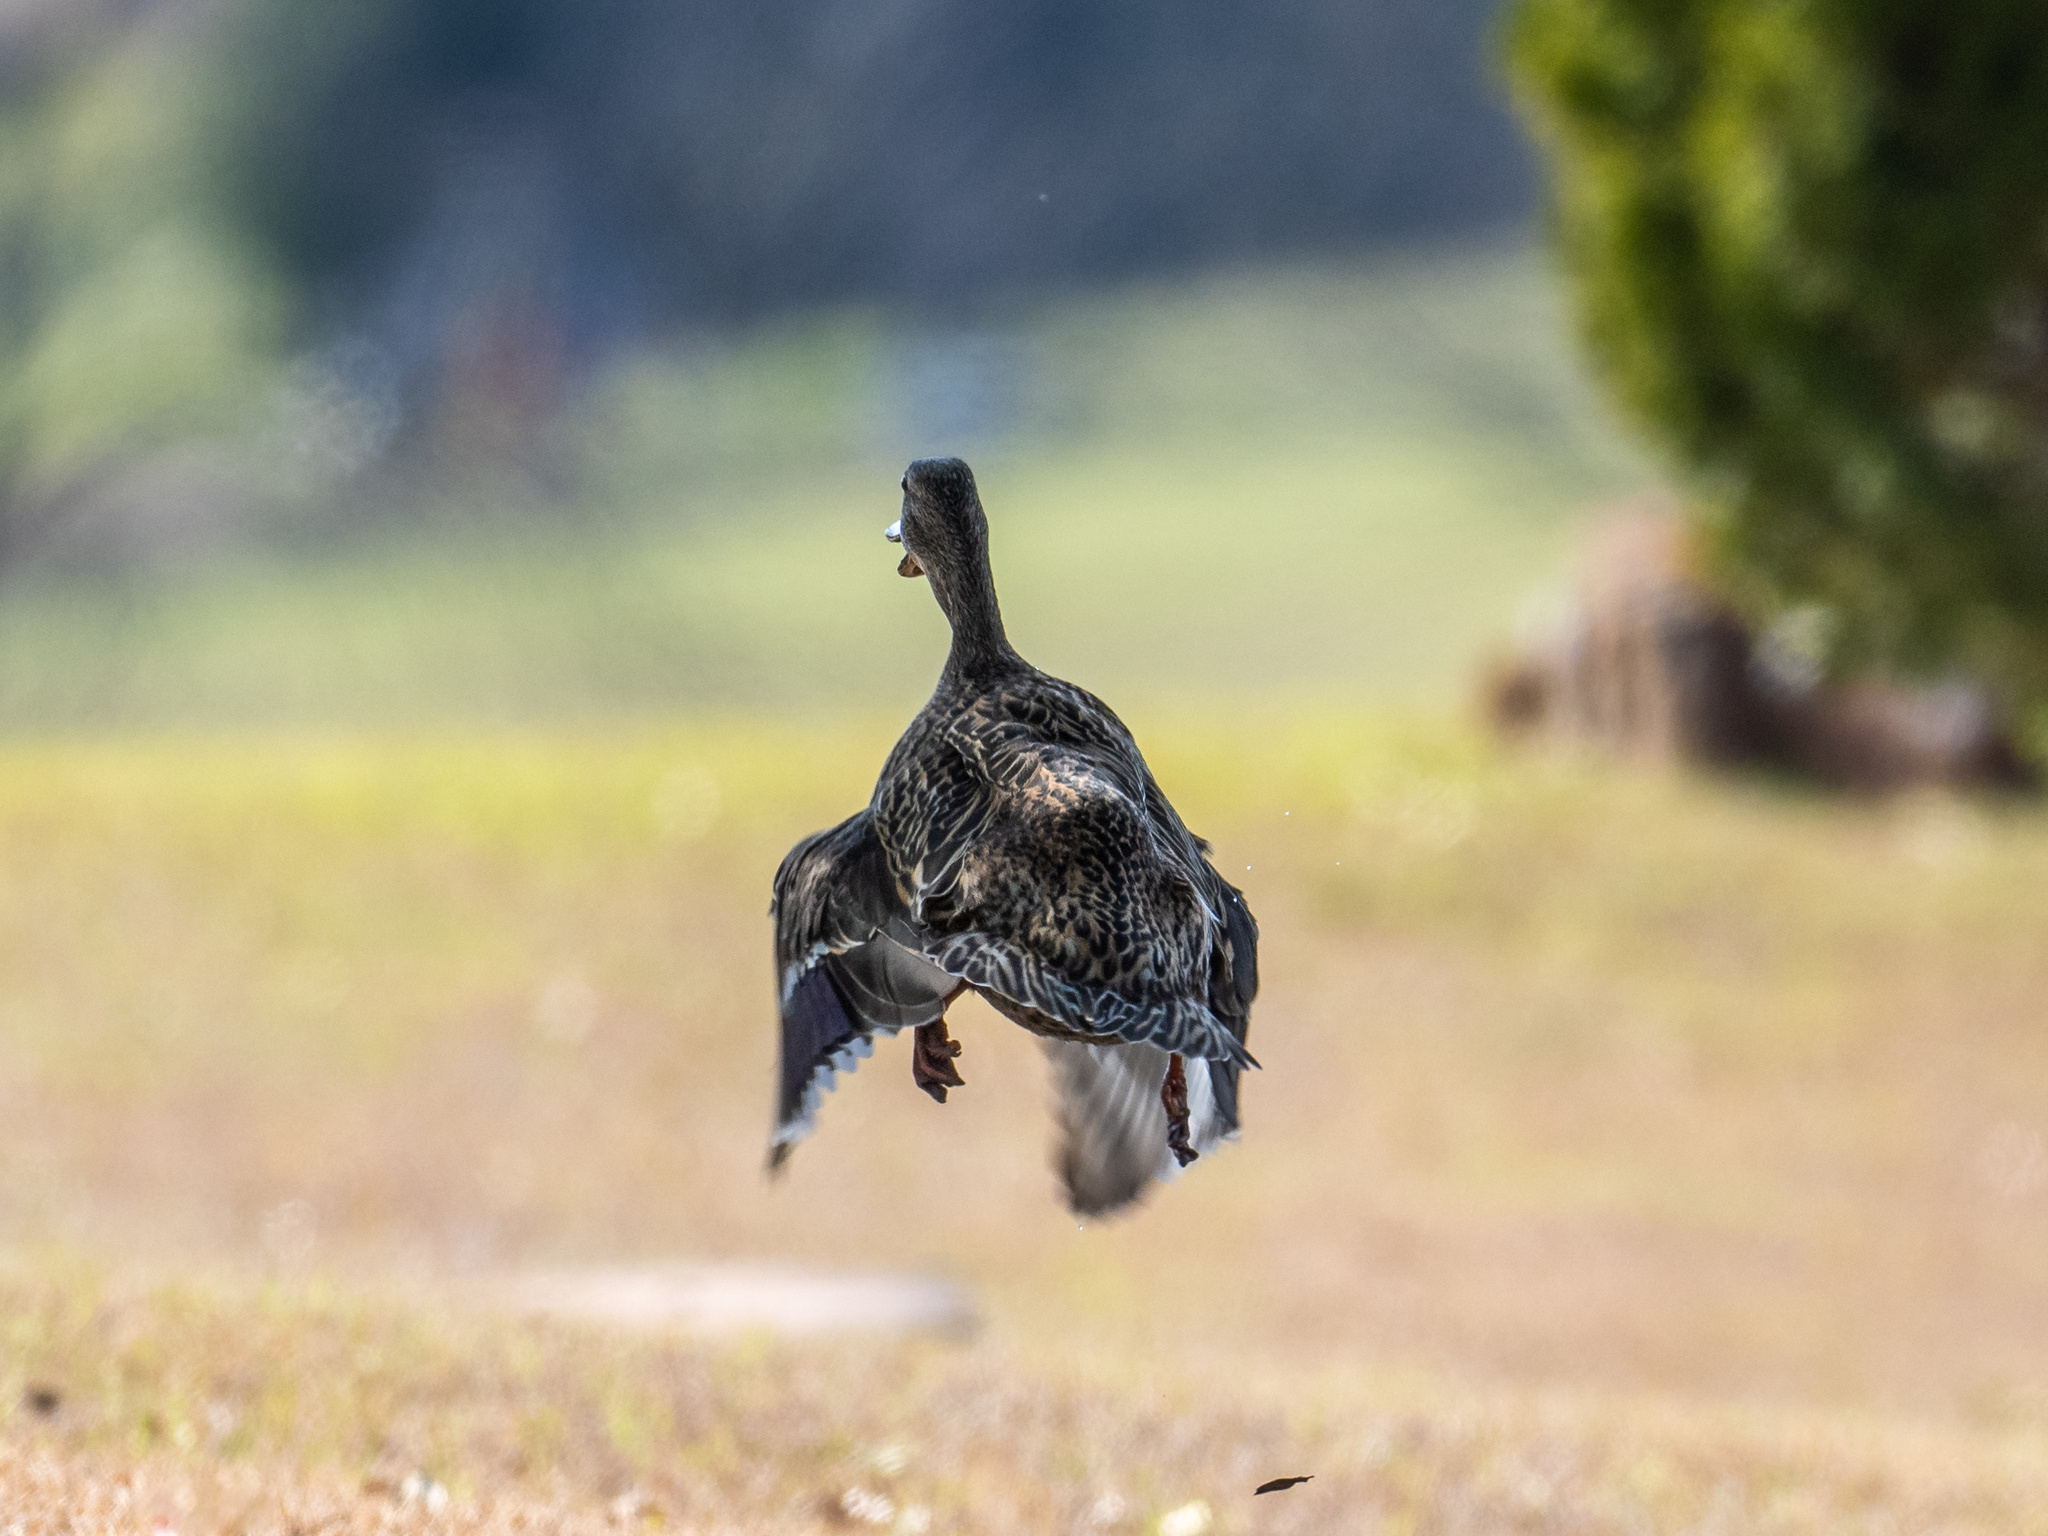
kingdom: Animalia
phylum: Chordata
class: Aves
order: Anseriformes
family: Anatidae
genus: Anas
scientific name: Anas platyrhynchos
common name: Mallard
